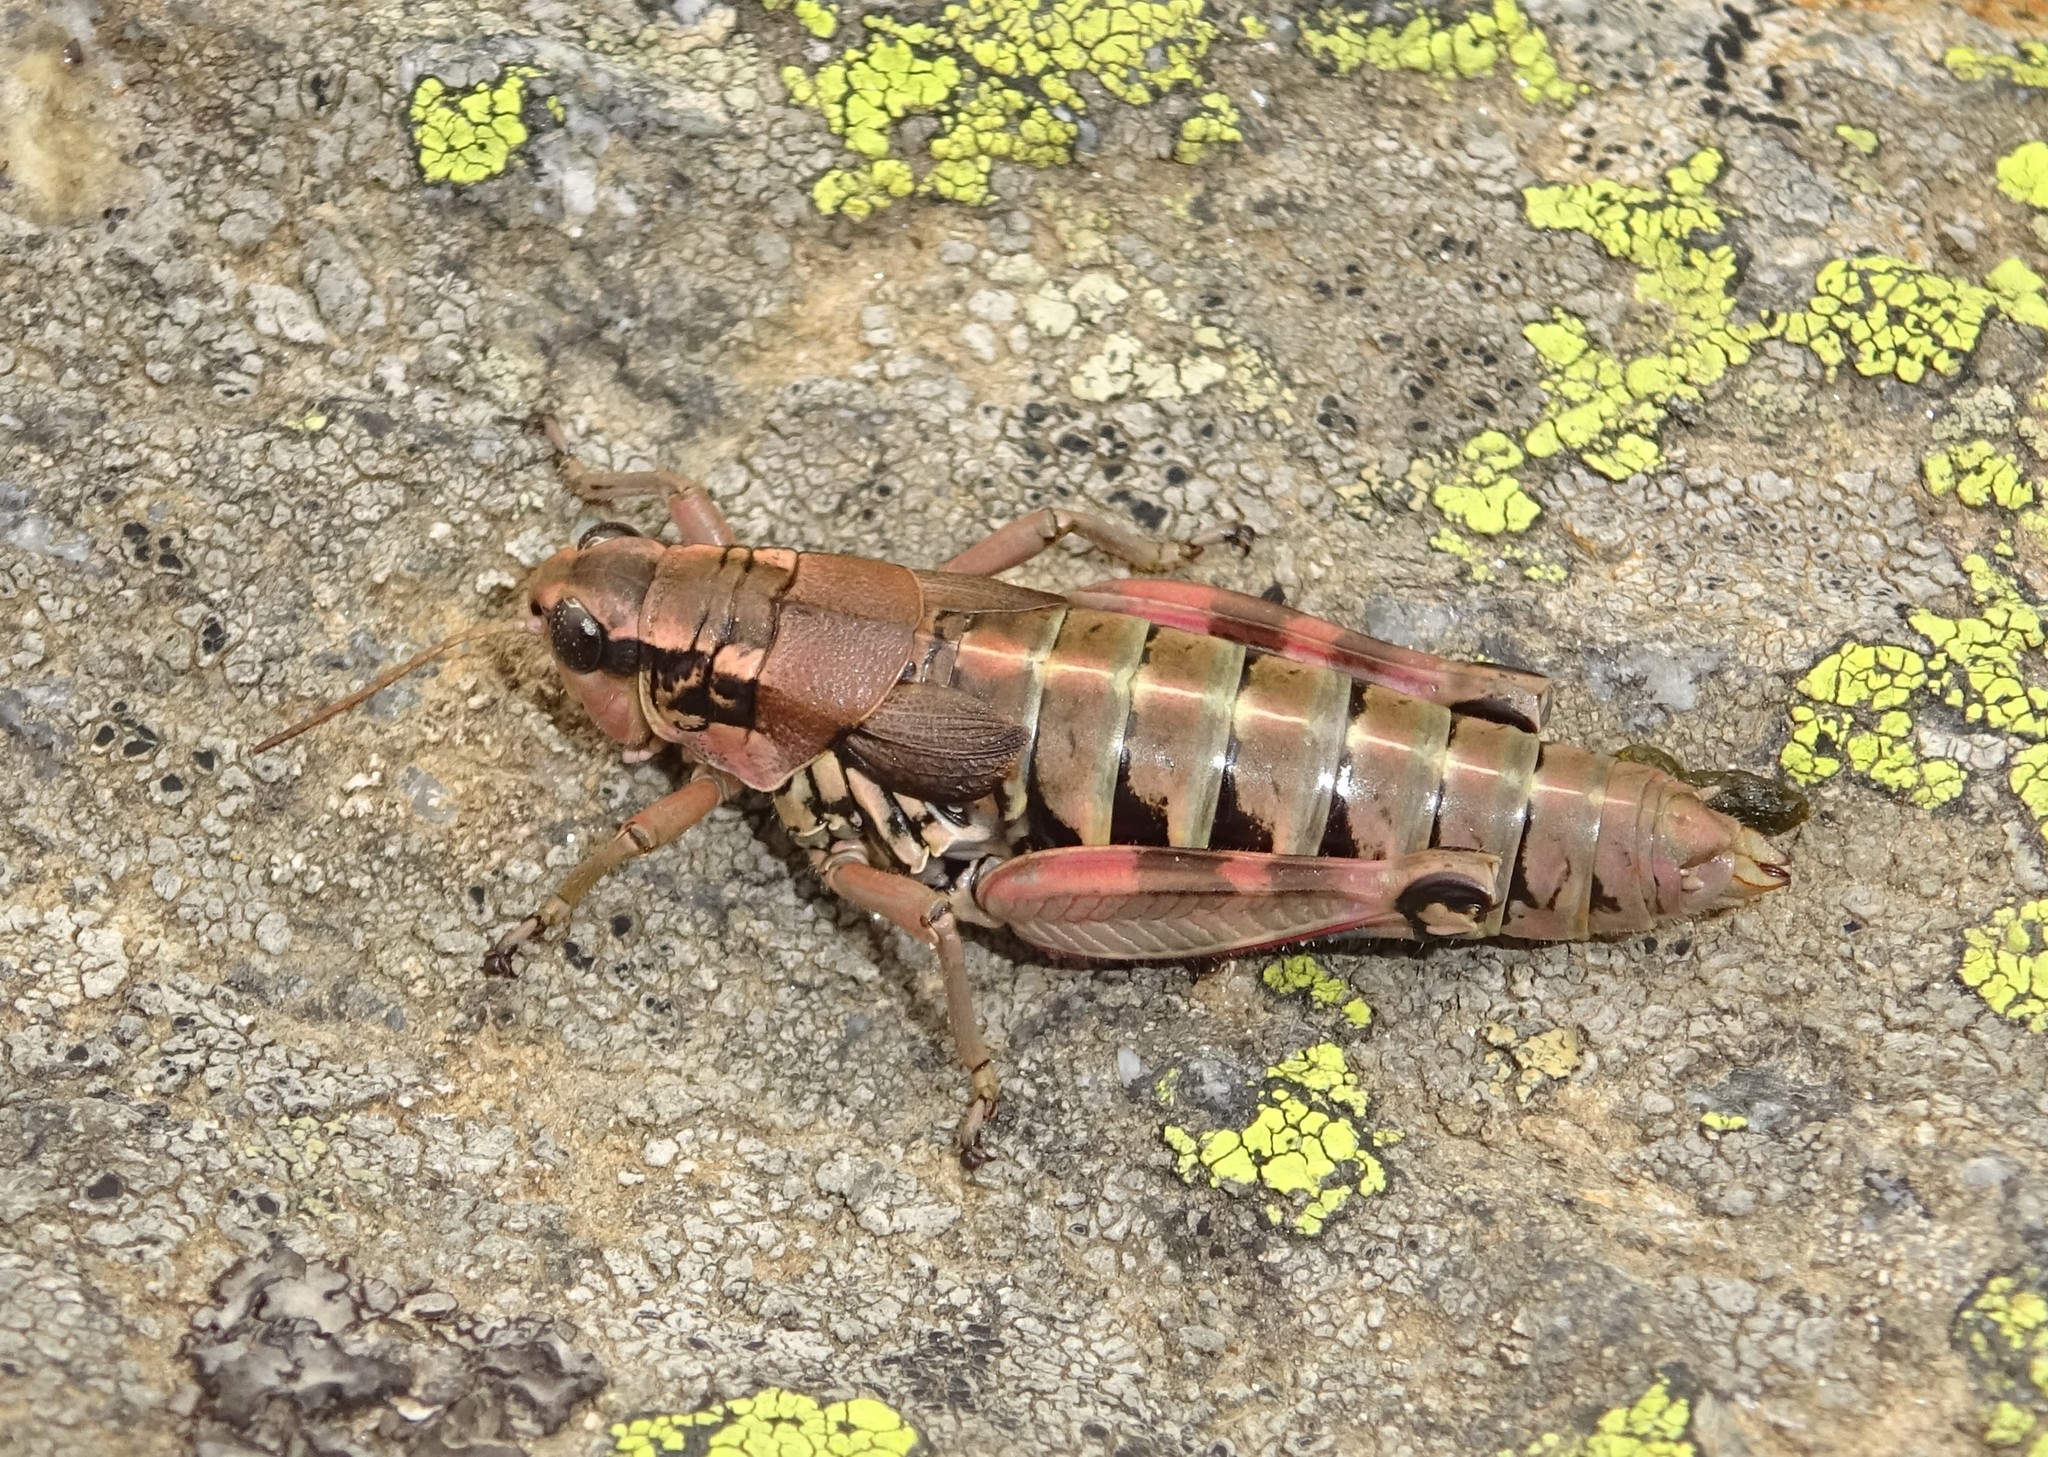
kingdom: Animalia
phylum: Arthropoda
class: Insecta
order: Orthoptera
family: Acrididae
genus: Podisma
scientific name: Podisma pedestris
